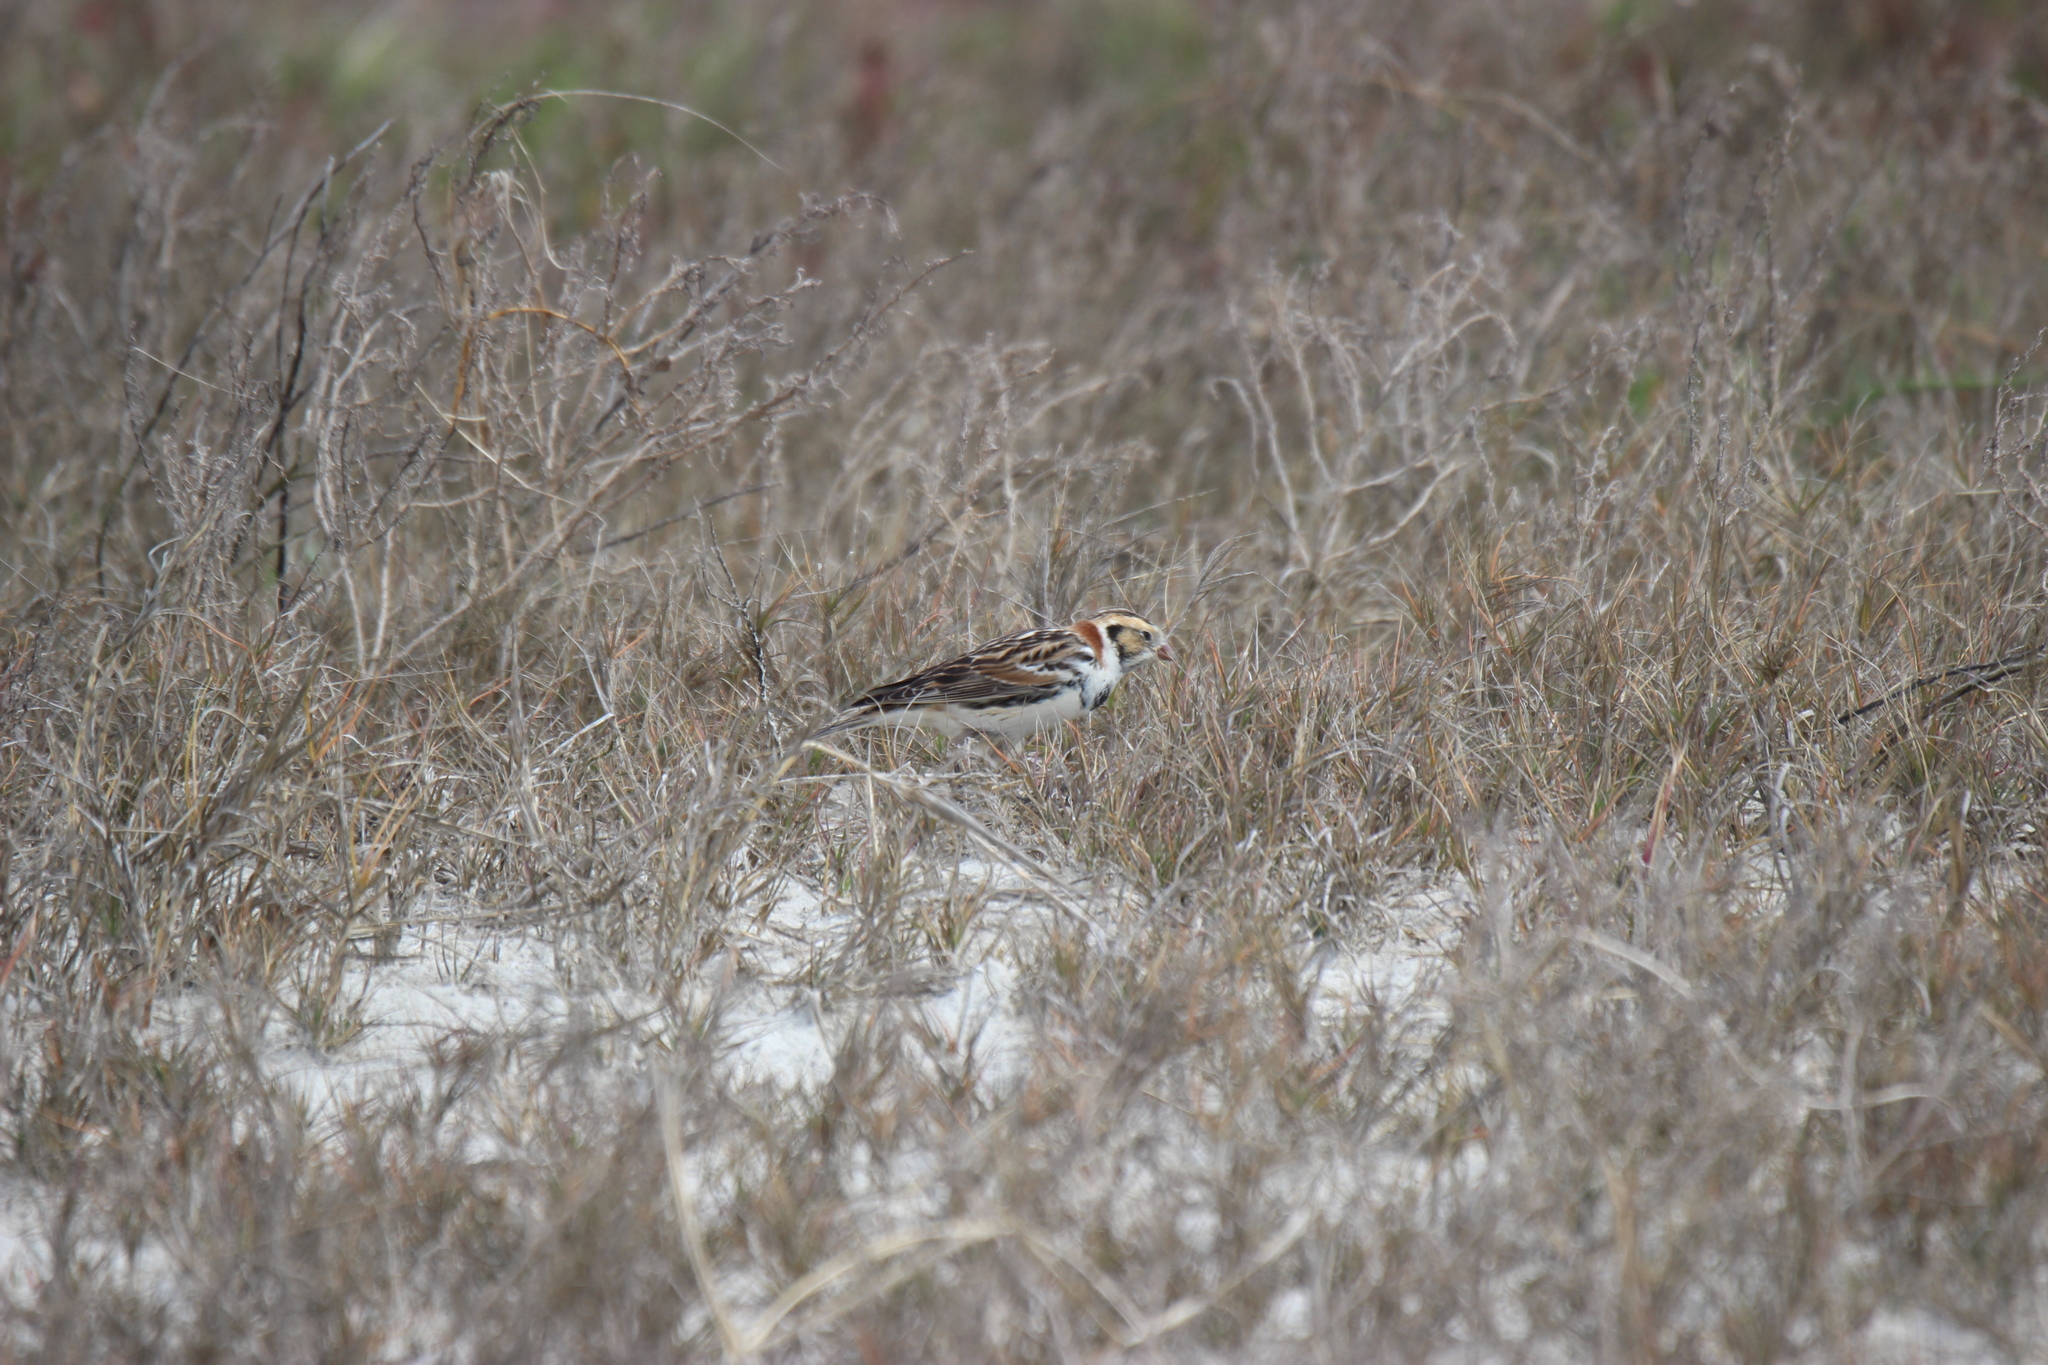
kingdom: Animalia
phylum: Chordata
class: Aves
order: Passeriformes
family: Calcariidae
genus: Calcarius
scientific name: Calcarius lapponicus
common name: Lapland longspur
